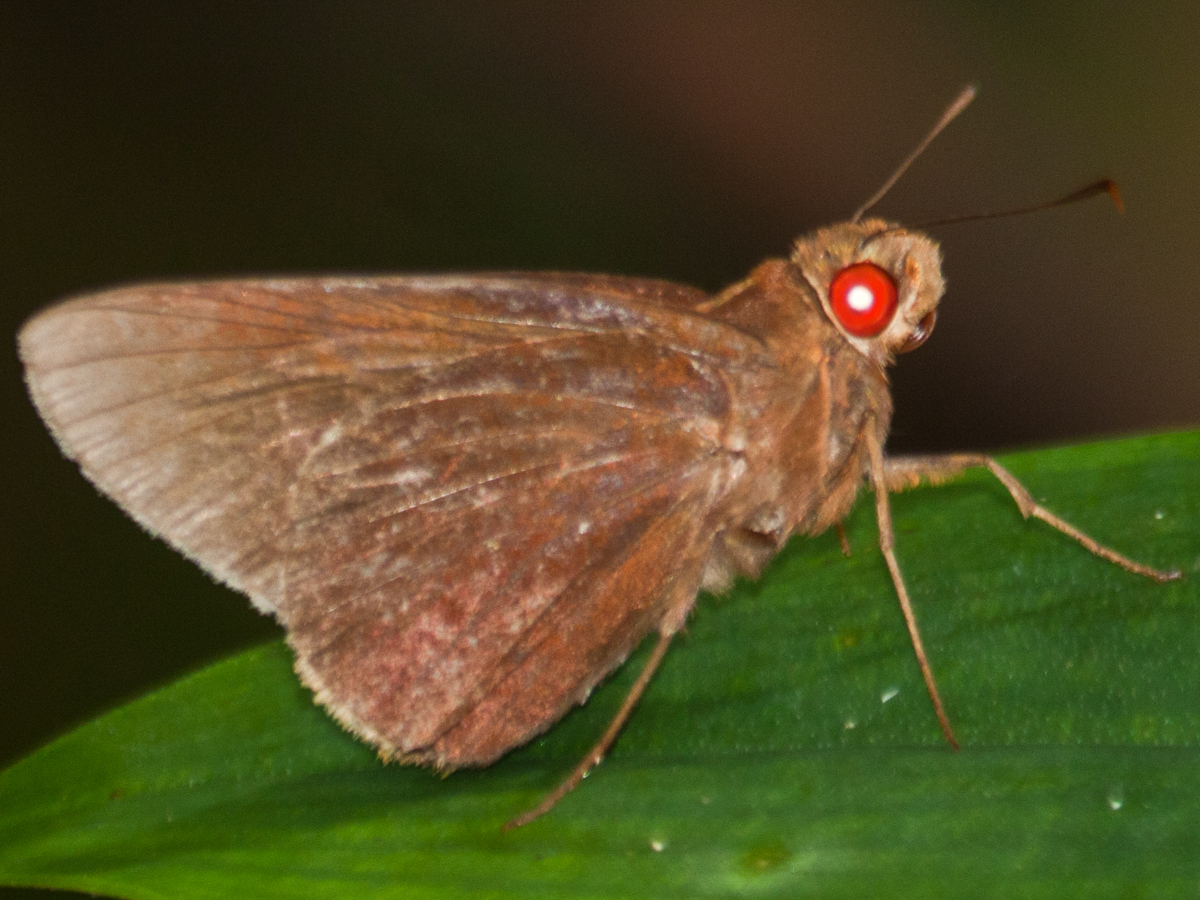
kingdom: Animalia
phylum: Arthropoda
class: Insecta
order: Lepidoptera
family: Hesperiidae
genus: Matapa
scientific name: Matapa aria
